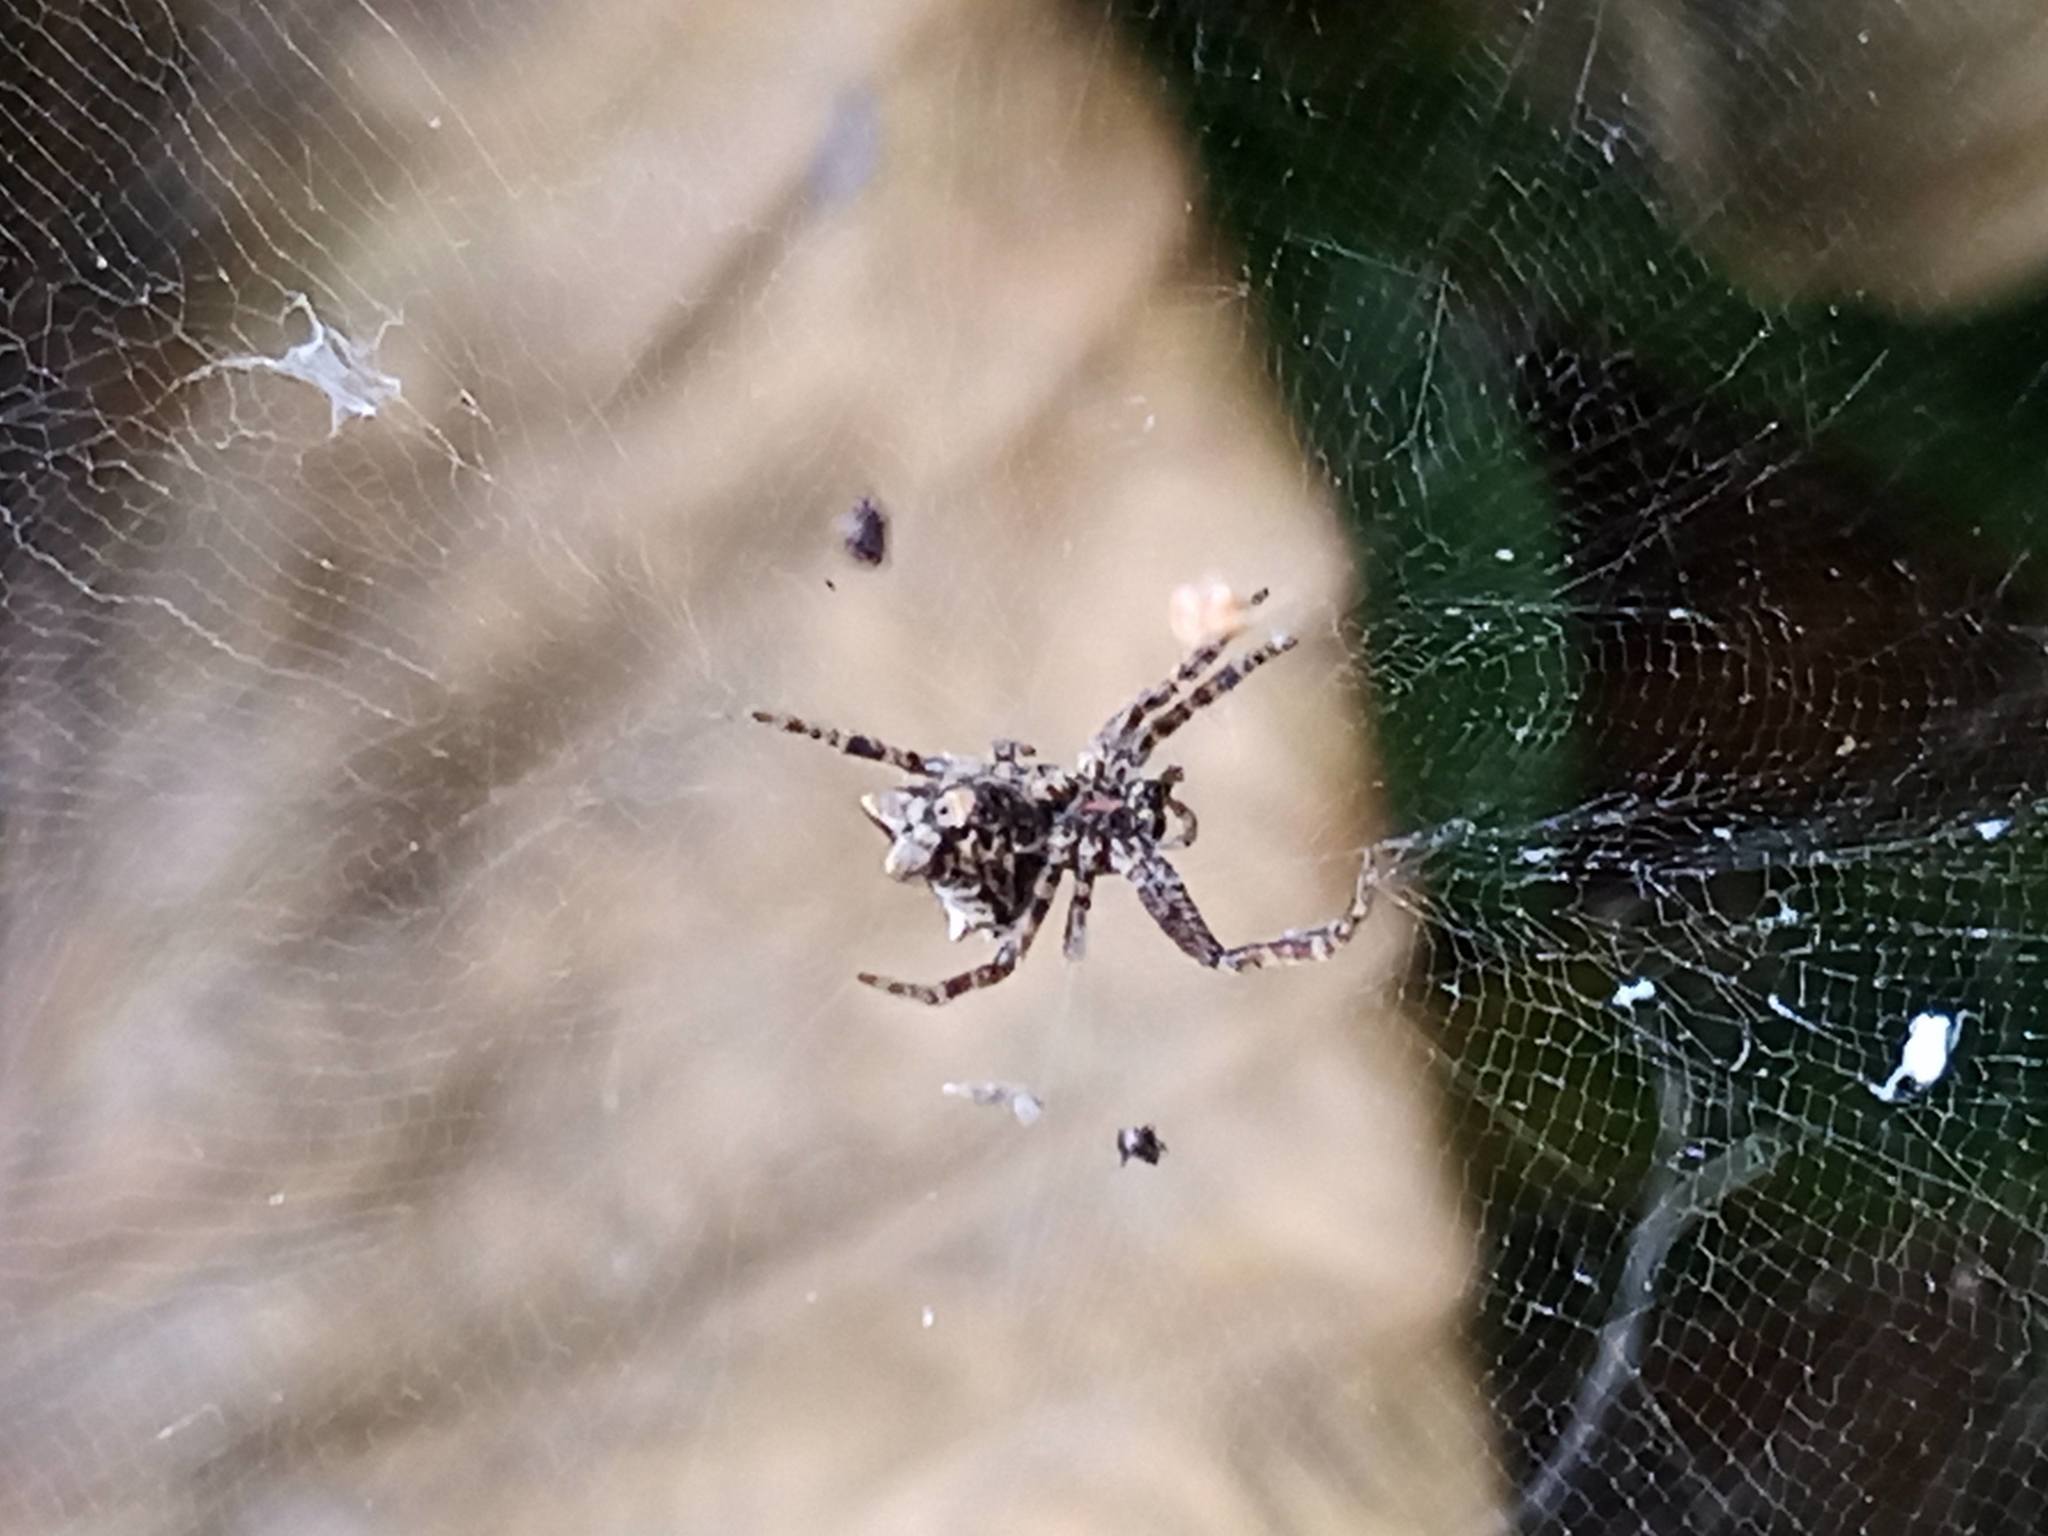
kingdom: Animalia
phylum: Arthropoda
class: Arachnida
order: Araneae
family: Araneidae
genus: Cyrtophora
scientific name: Cyrtophora citricola
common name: Orb weavers
